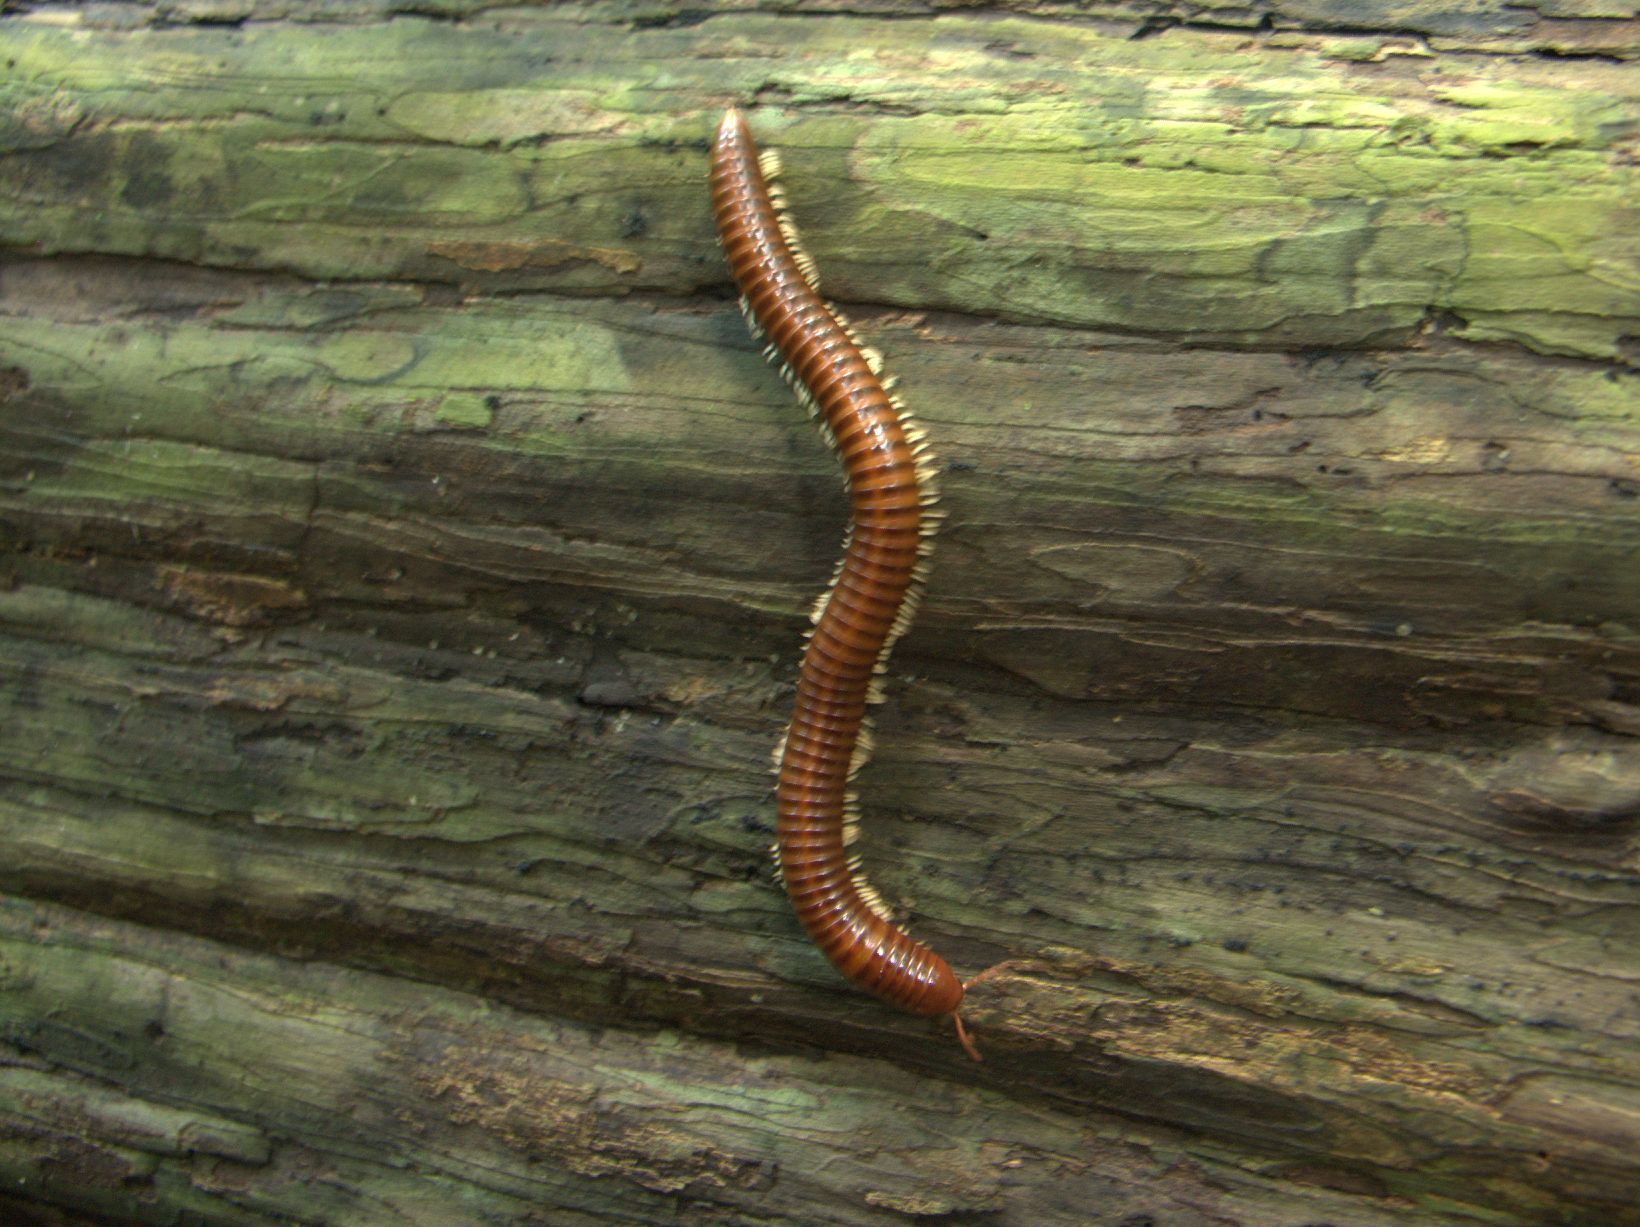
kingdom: Animalia
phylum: Arthropoda
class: Diplopoda
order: Spirostreptida
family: Harpagophoridae
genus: Thyropygus
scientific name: Thyropygus carli
